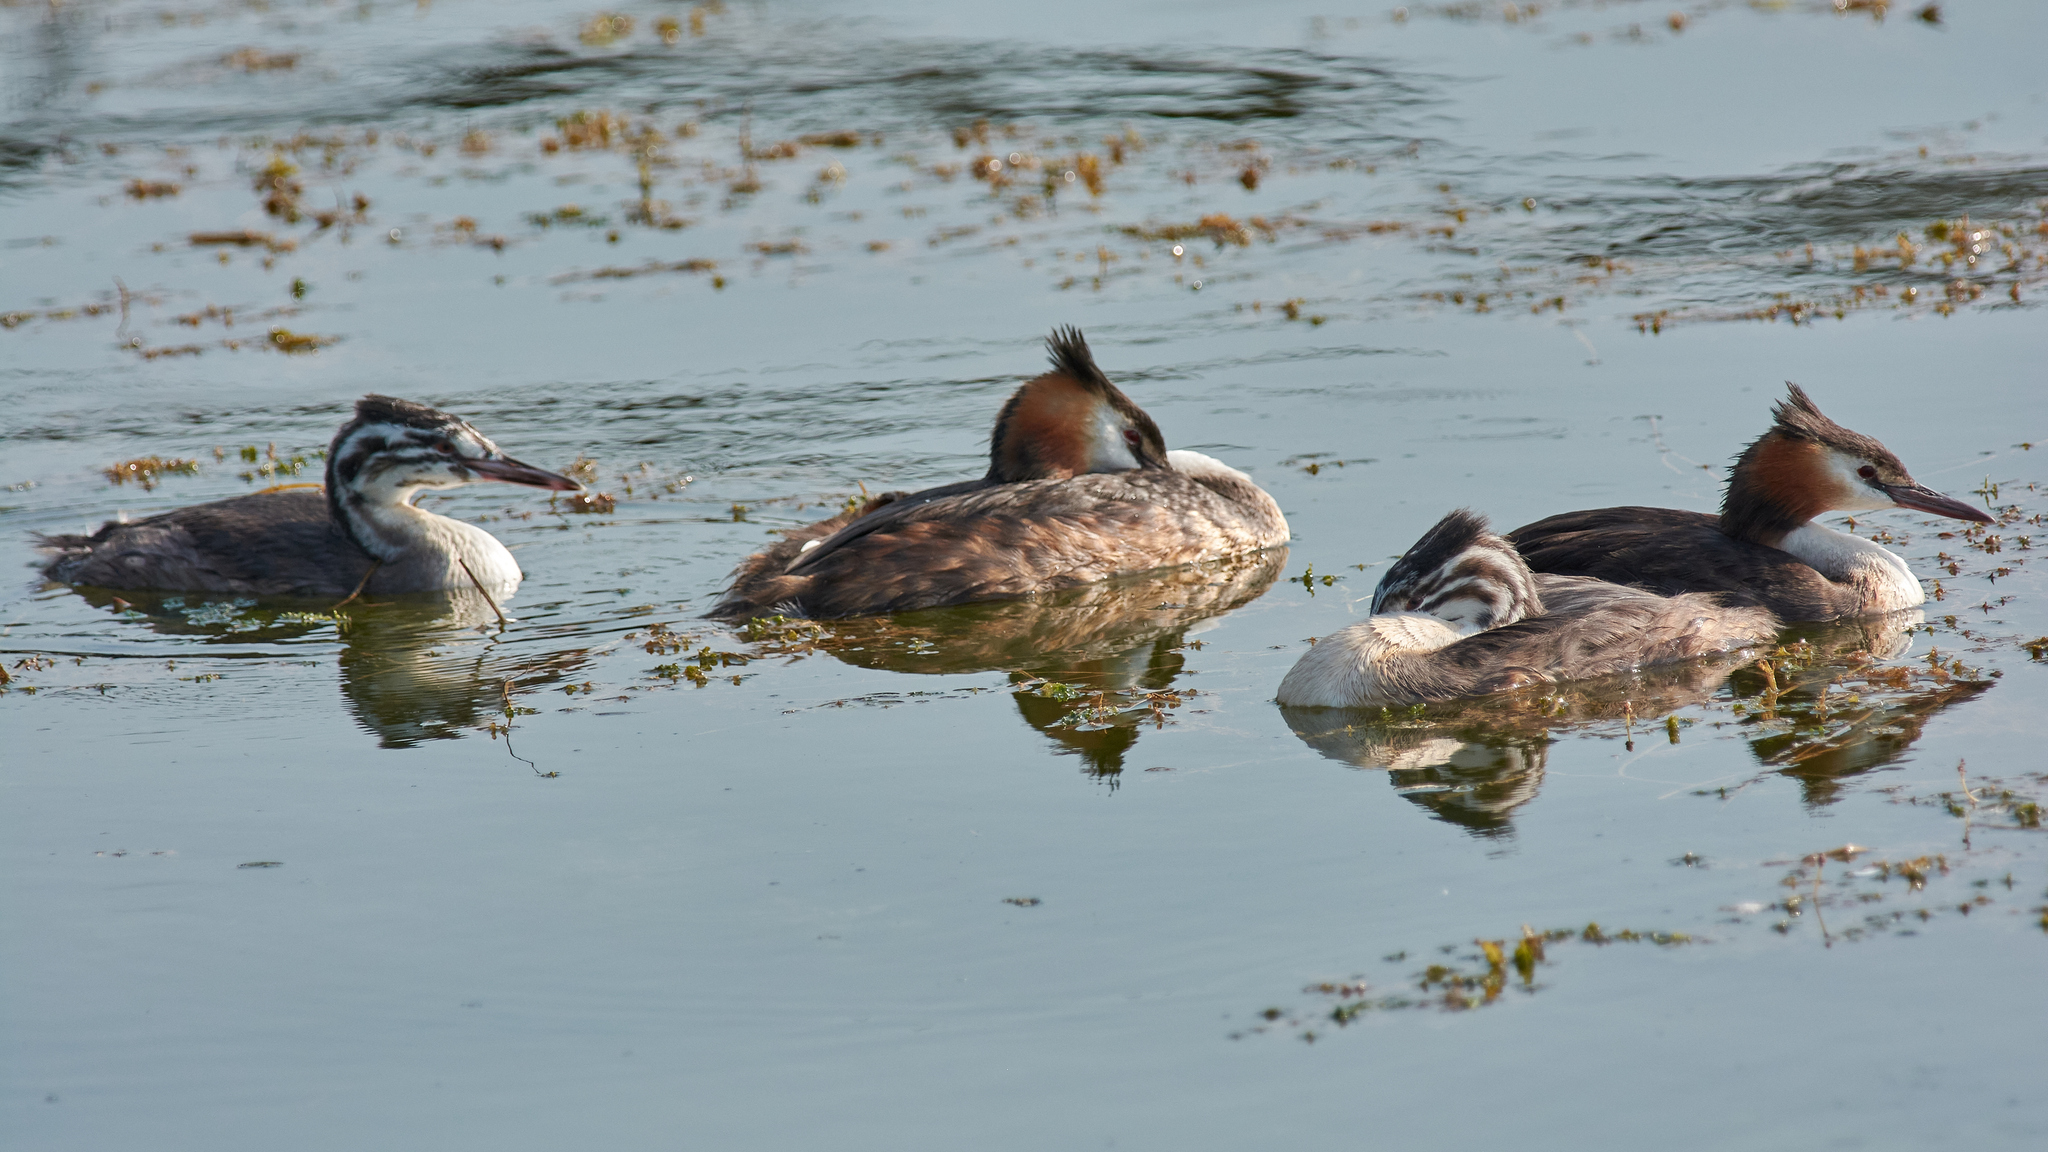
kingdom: Animalia
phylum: Chordata
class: Aves
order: Podicipediformes
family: Podicipedidae
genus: Podiceps
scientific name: Podiceps cristatus
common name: Great crested grebe
